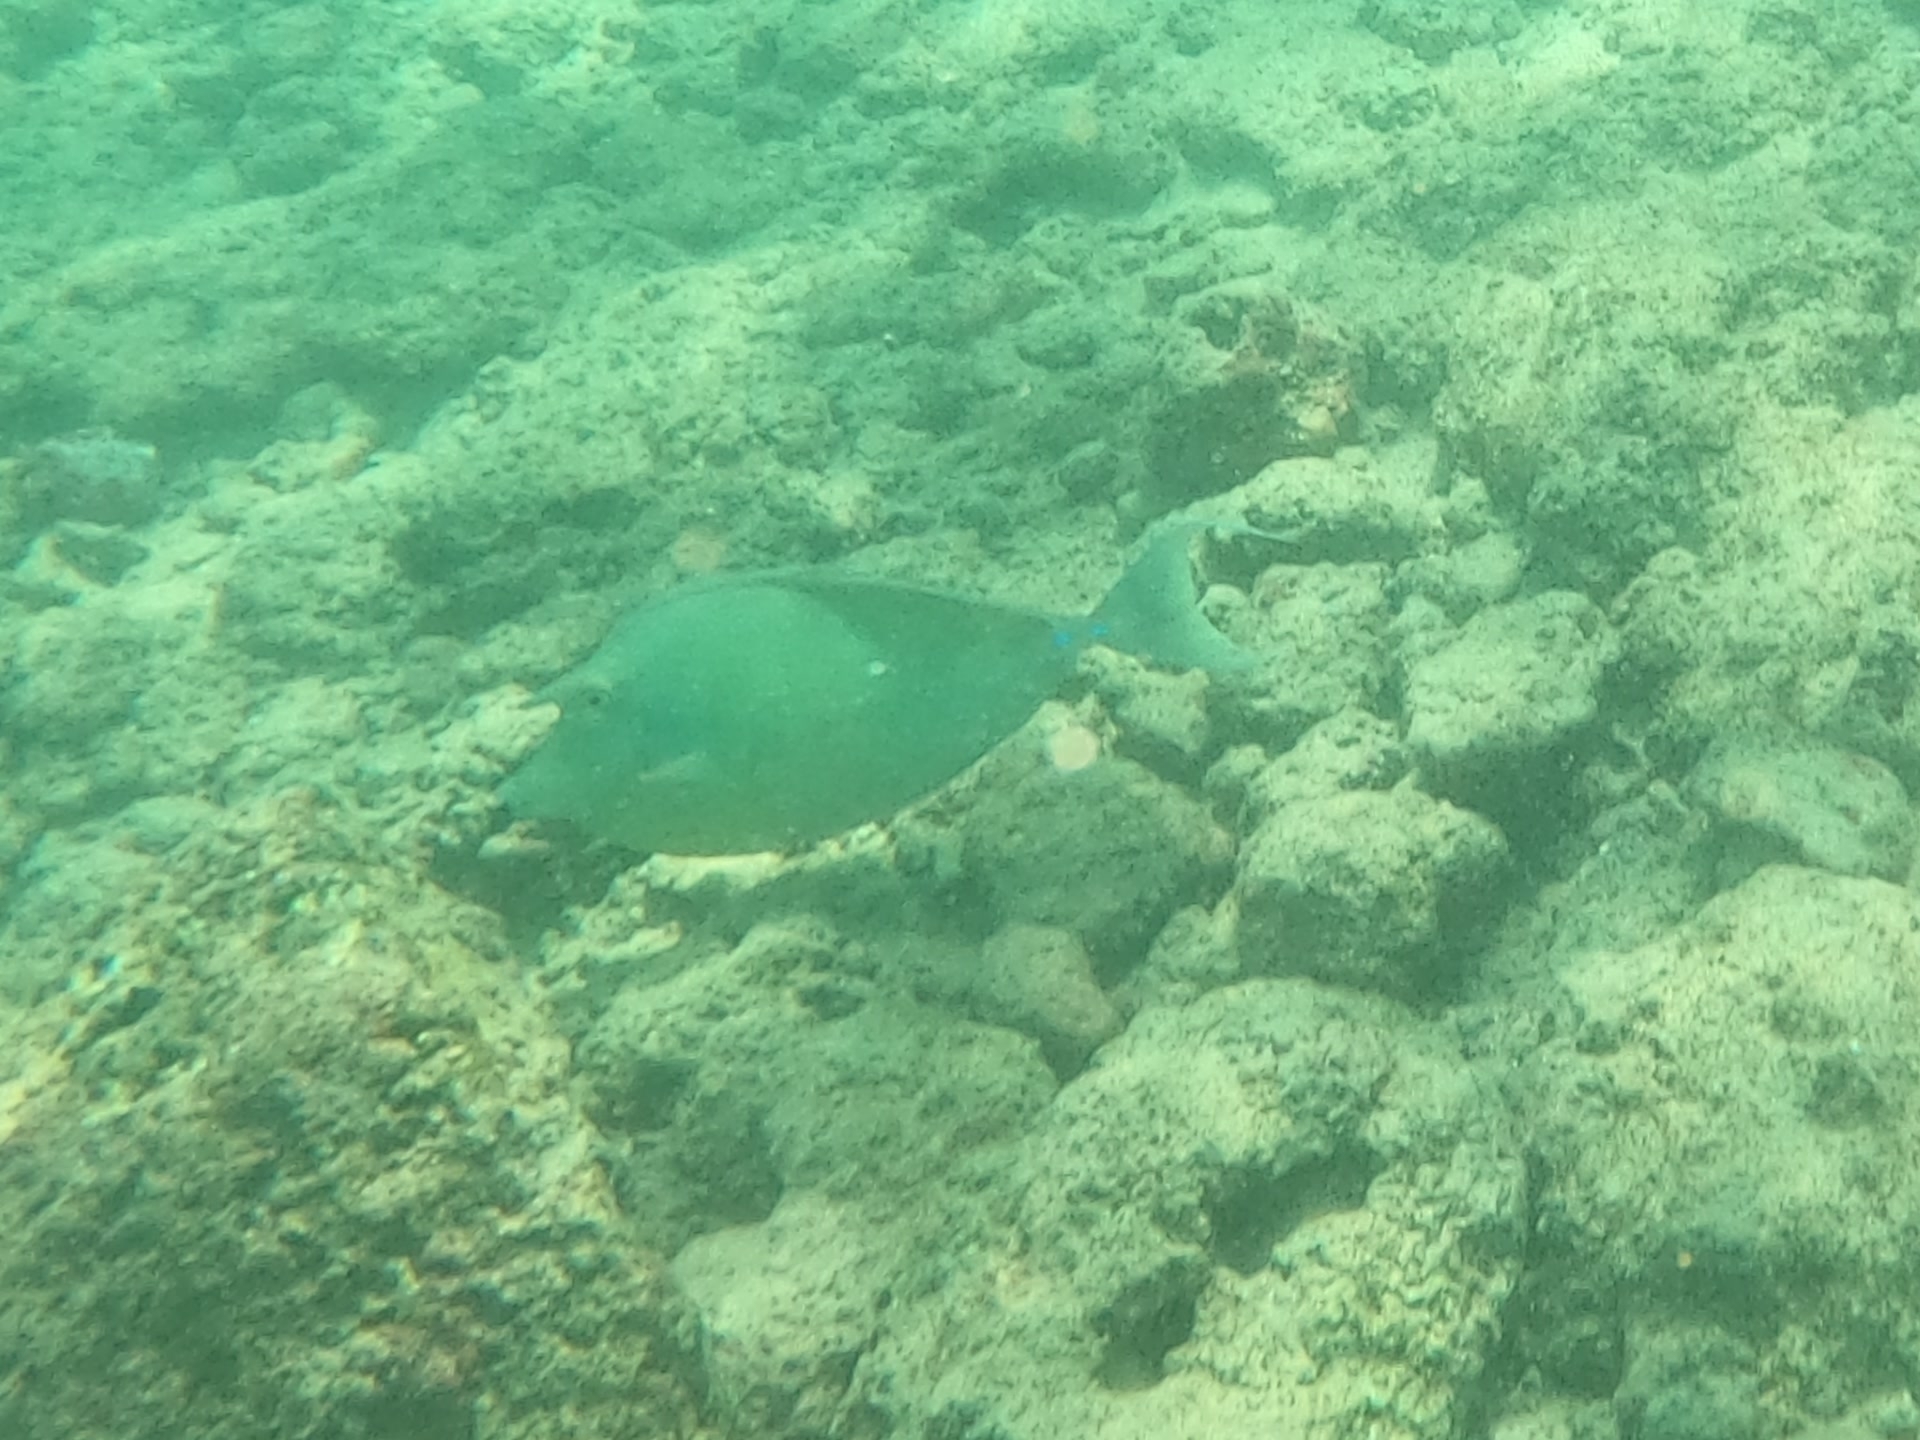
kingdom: Animalia
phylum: Chordata
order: Perciformes
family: Acanthuridae
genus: Naso
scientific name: Naso unicornis
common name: Bluespine unicornfish
